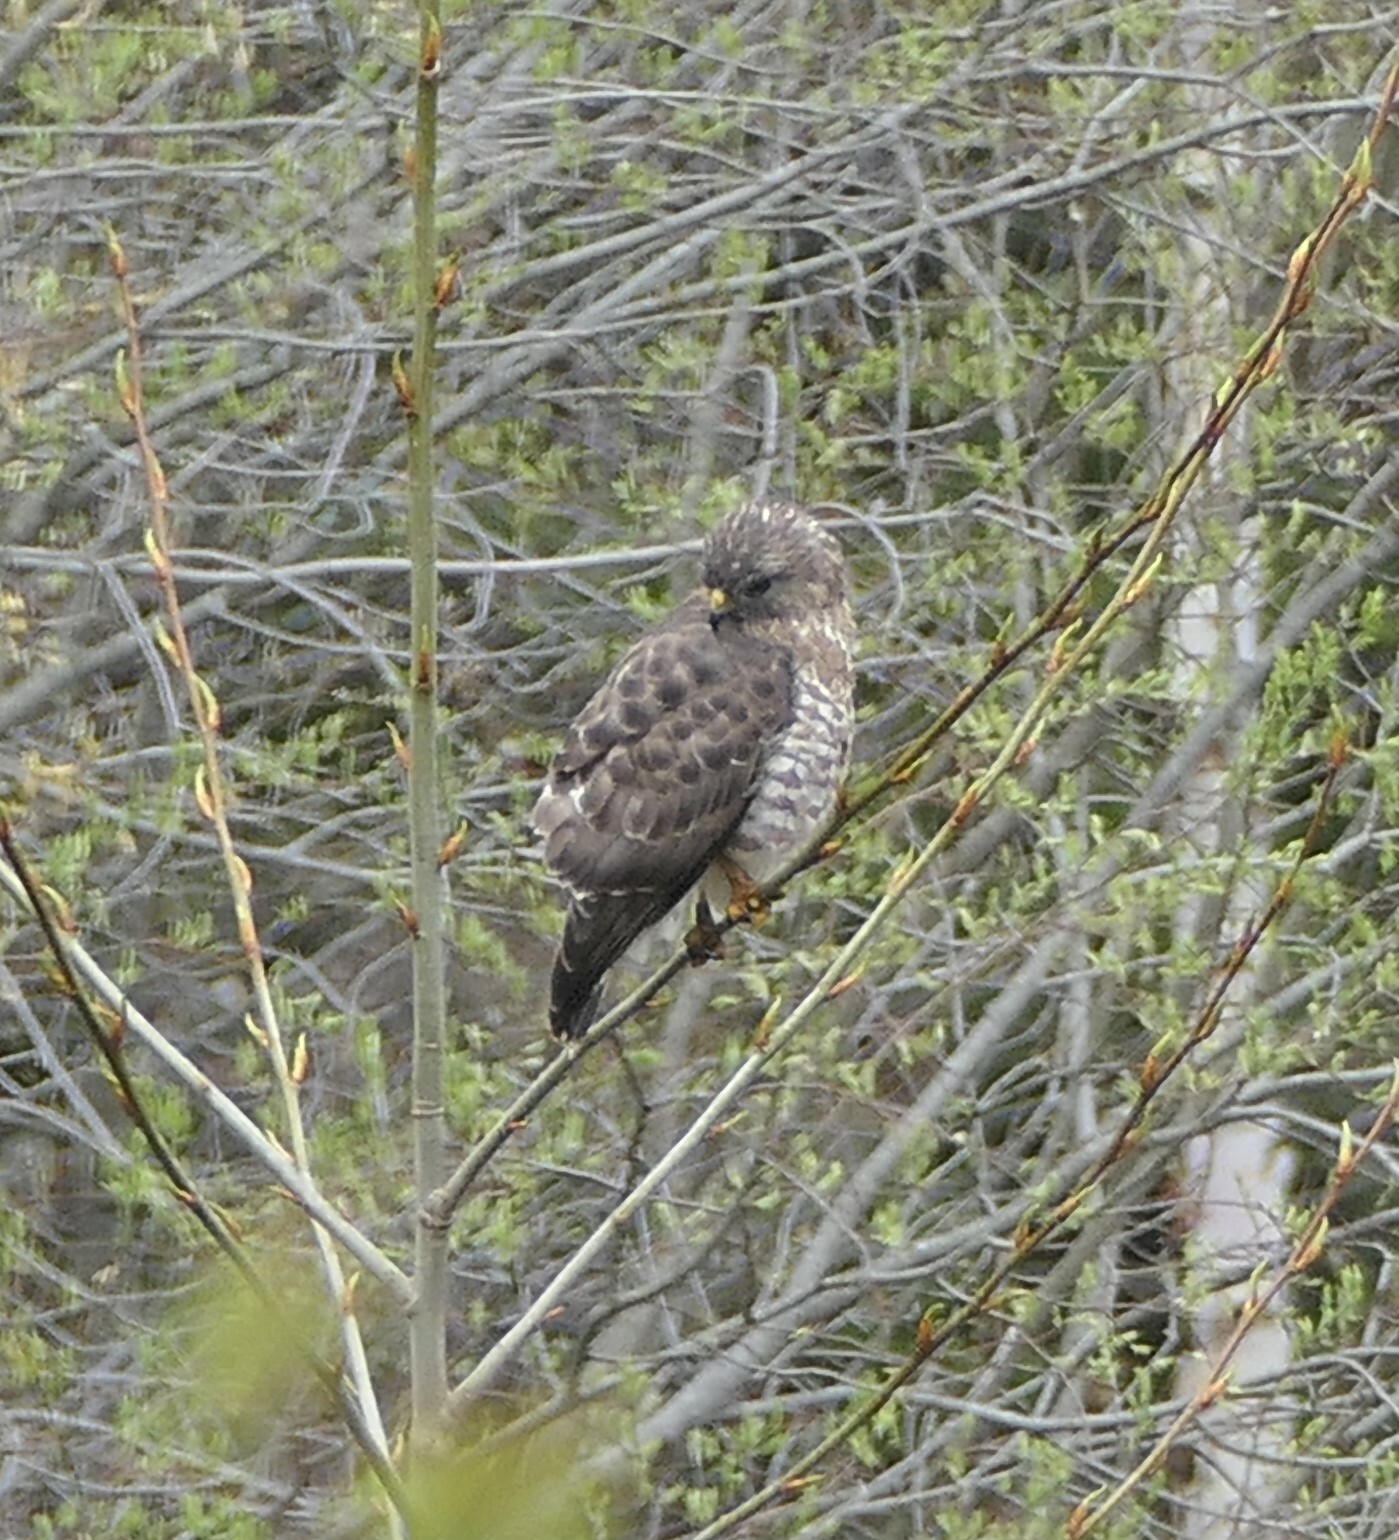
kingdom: Animalia
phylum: Chordata
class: Aves
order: Accipitriformes
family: Accipitridae
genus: Buteo
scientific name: Buteo platypterus
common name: Broad-winged hawk
